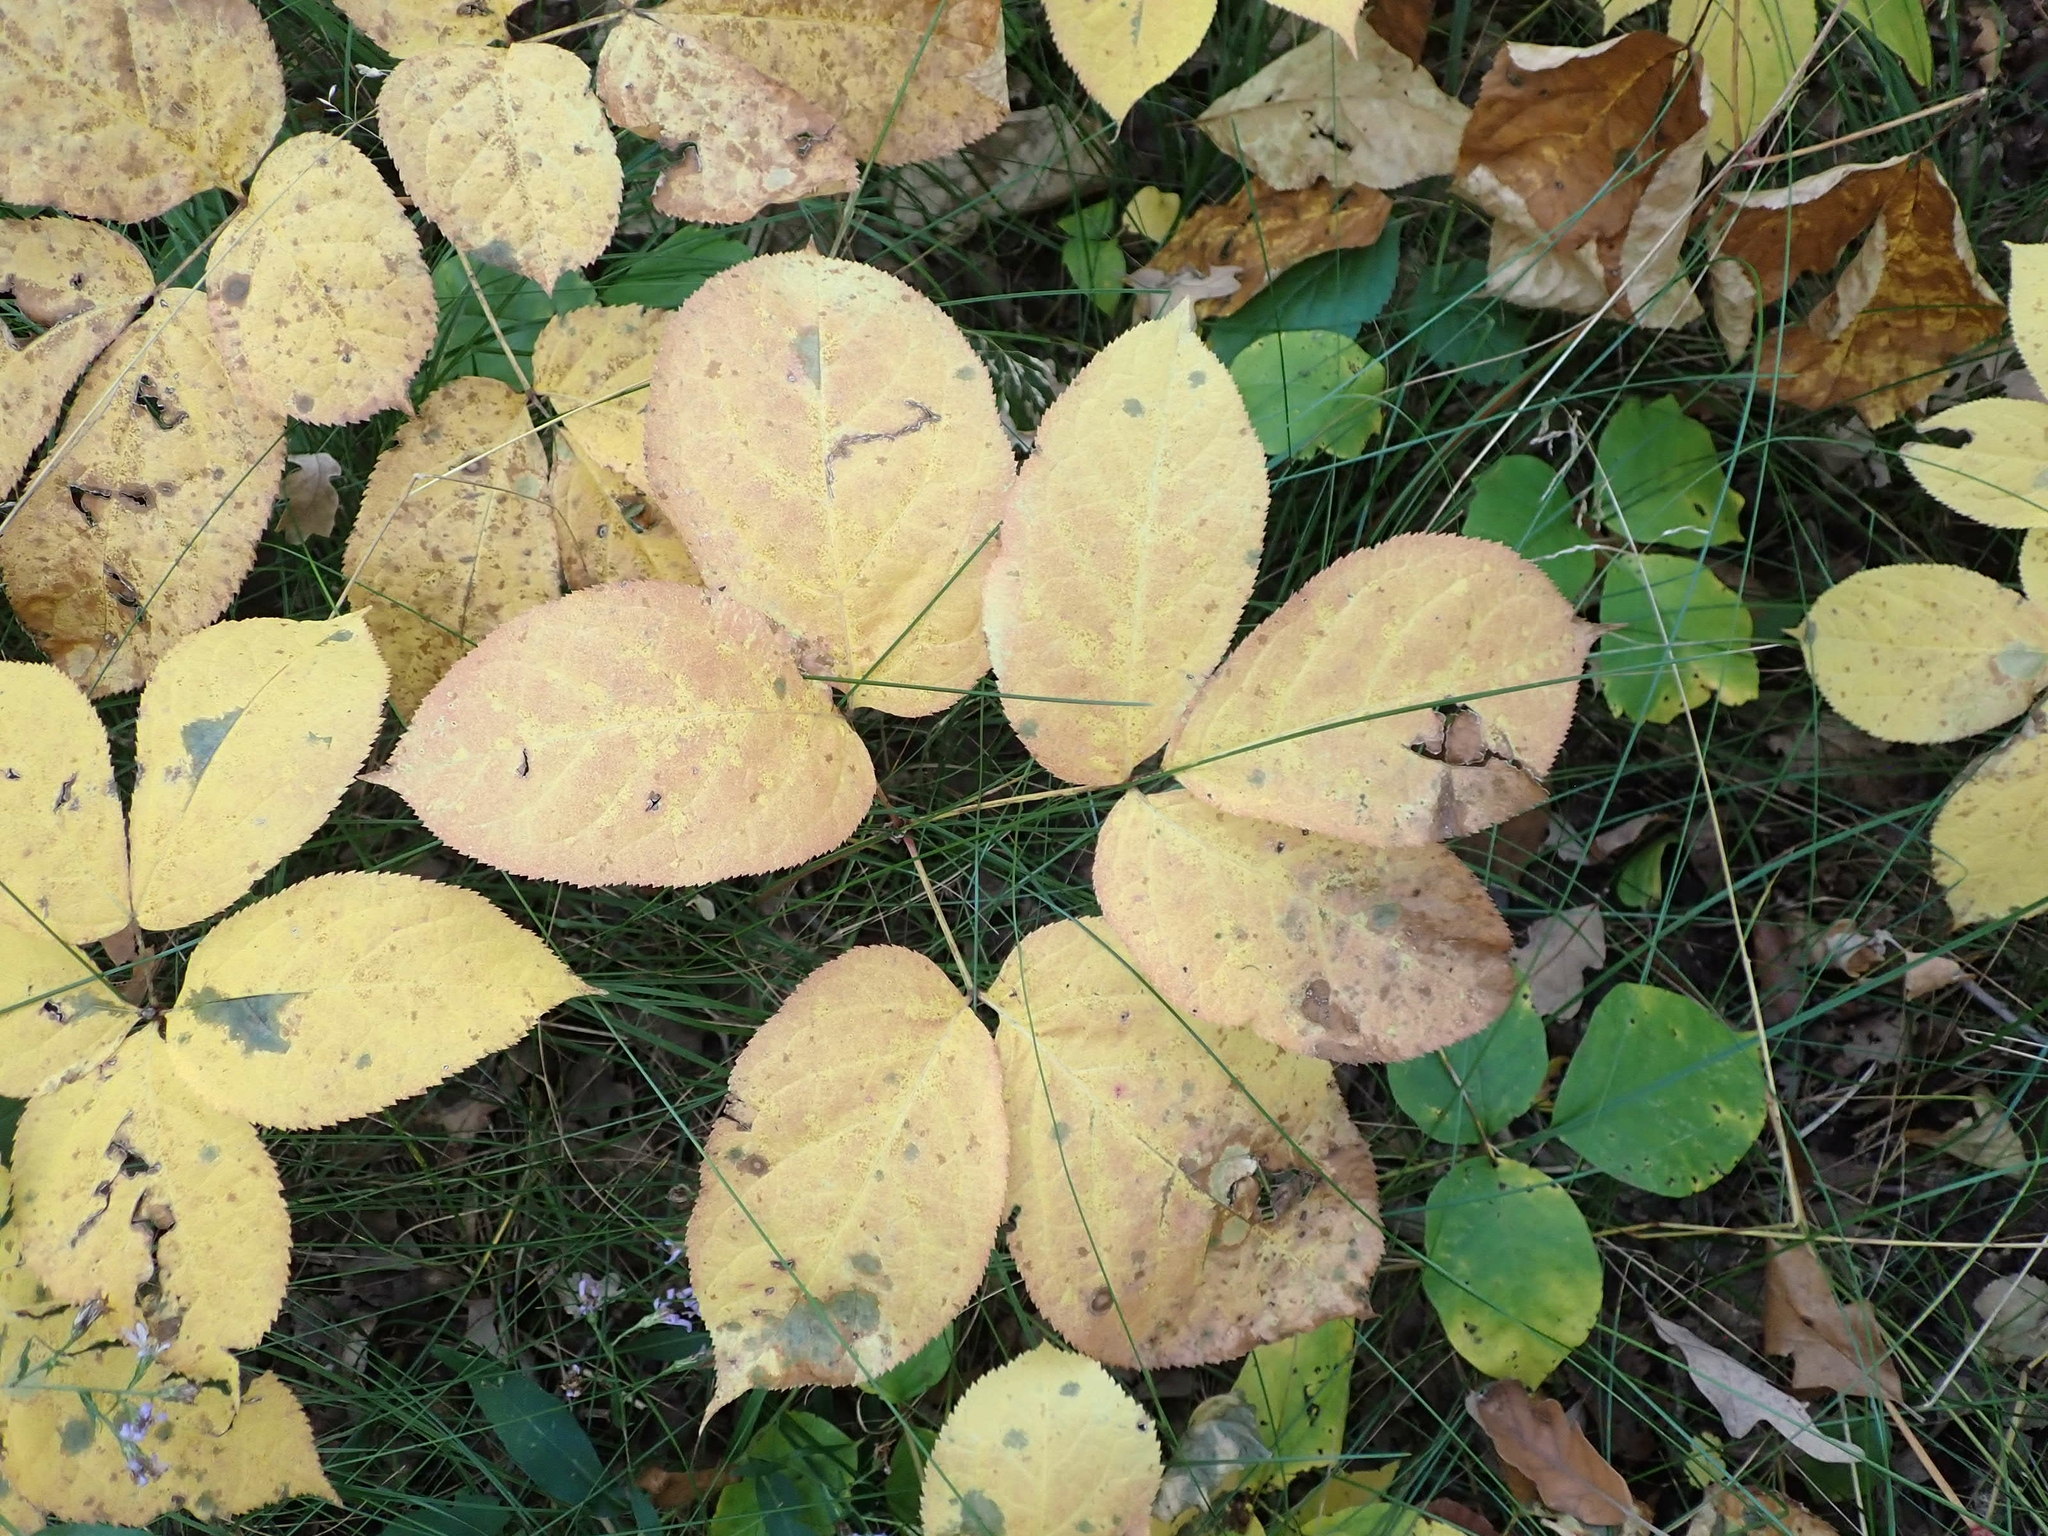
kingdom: Plantae
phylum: Tracheophyta
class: Magnoliopsida
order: Apiales
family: Araliaceae
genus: Aralia
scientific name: Aralia nudicaulis
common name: Wild sarsaparilla
